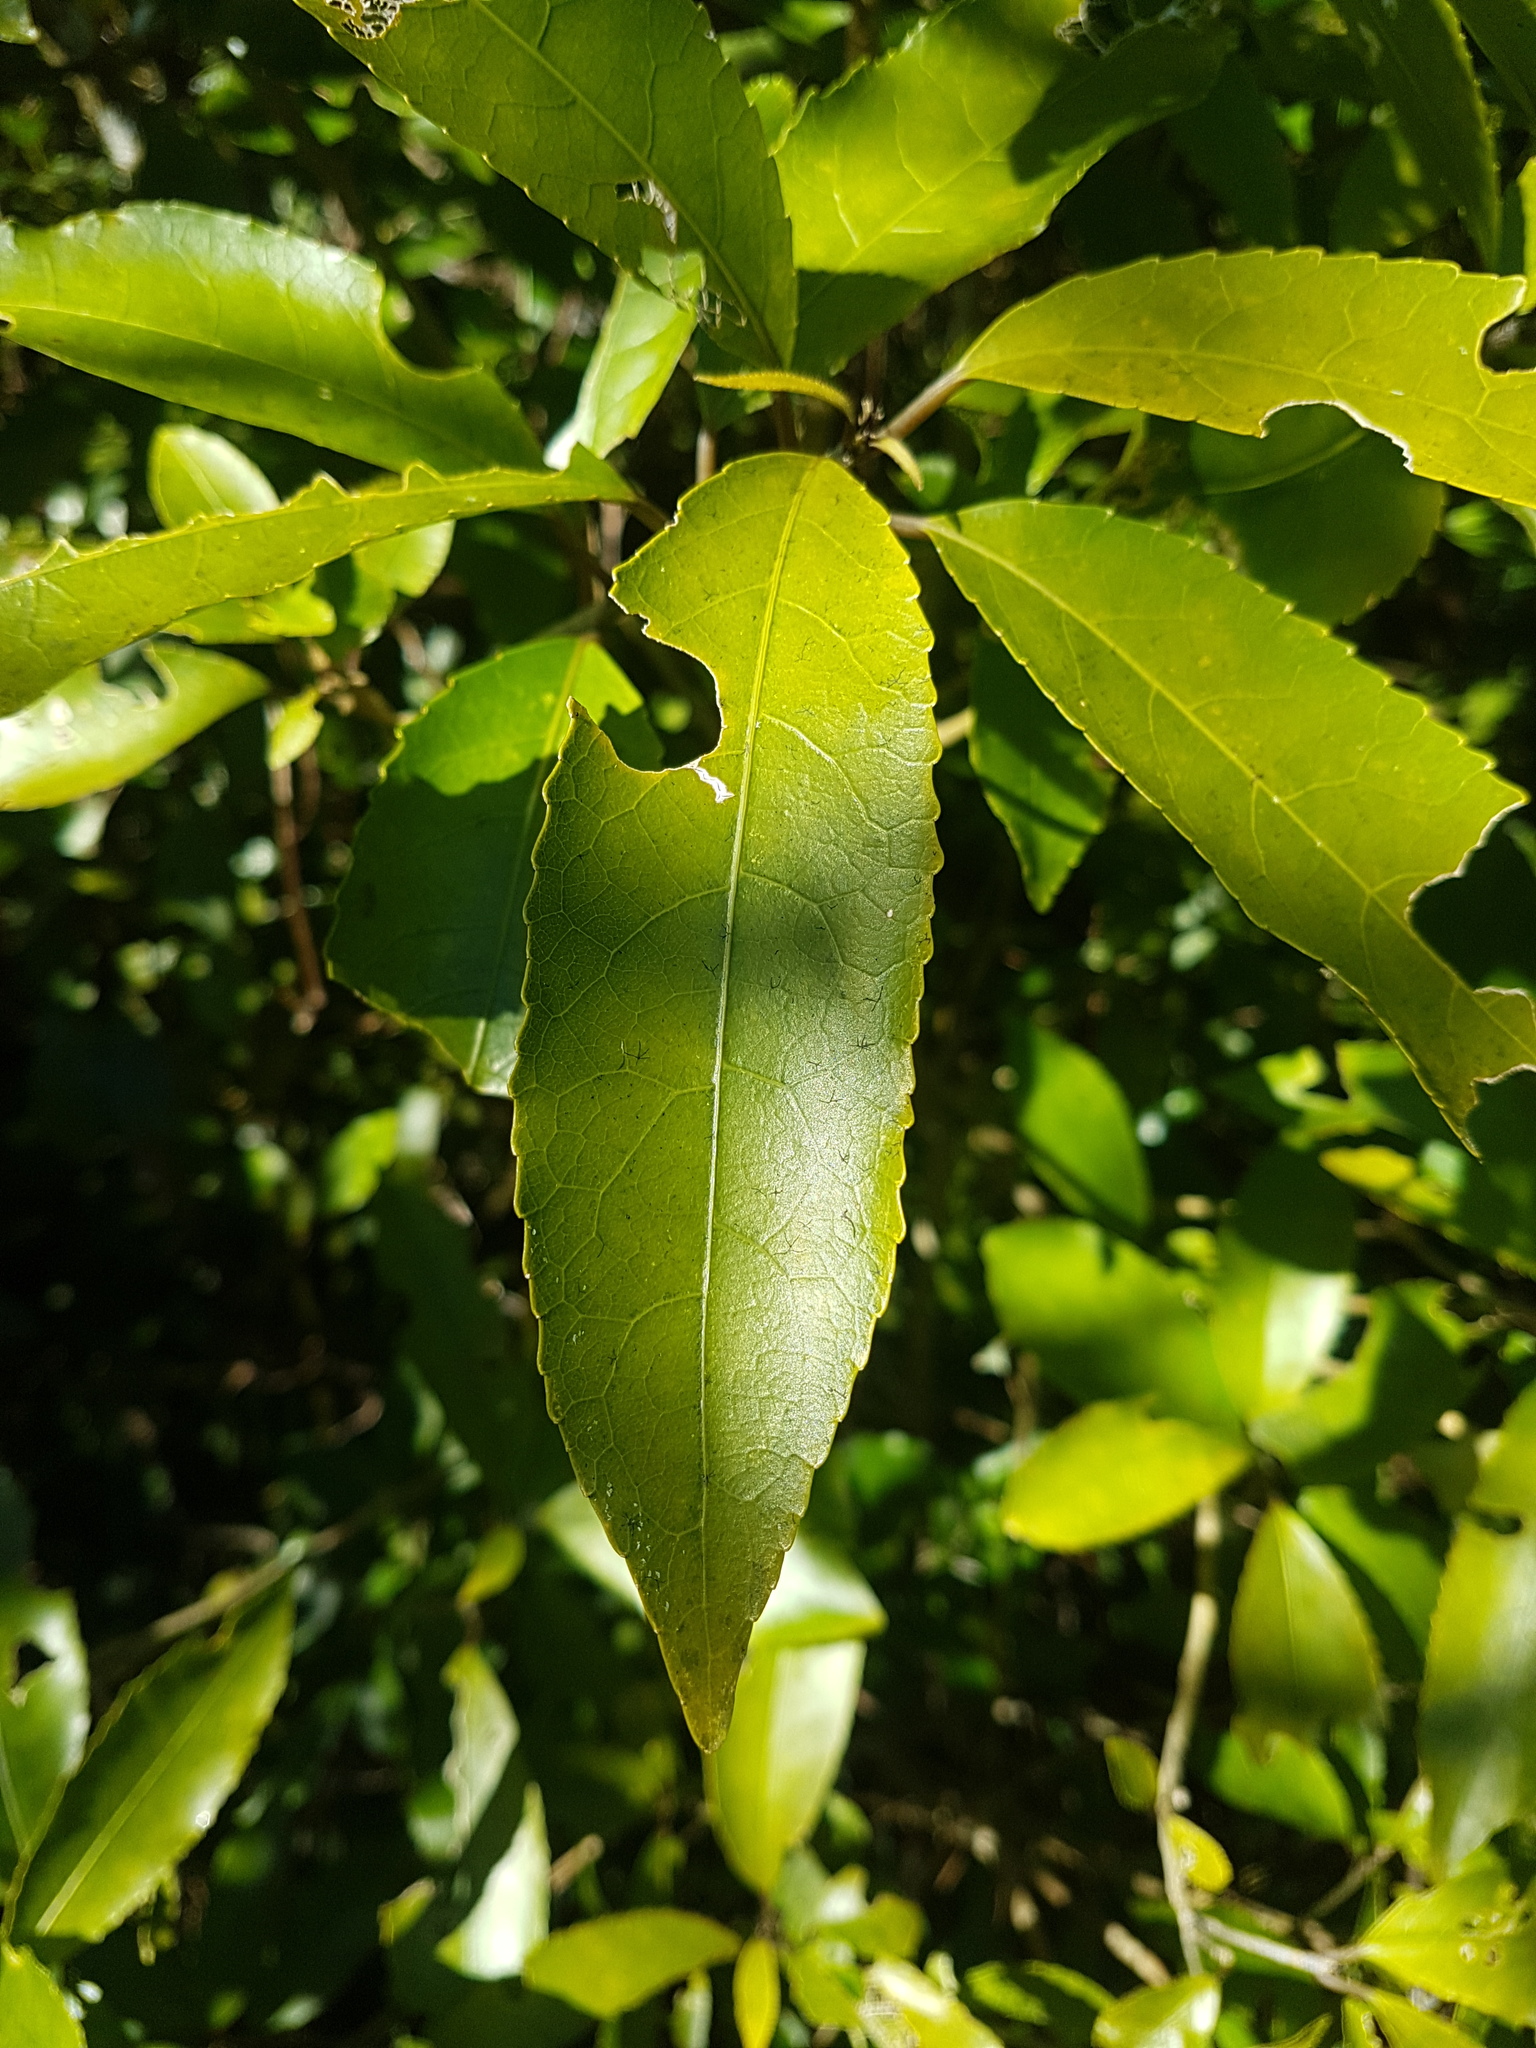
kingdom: Plantae
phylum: Tracheophyta
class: Magnoliopsida
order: Malpighiales
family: Violaceae
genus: Melicytus
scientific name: Melicytus ramiflorus
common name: Mahoe
